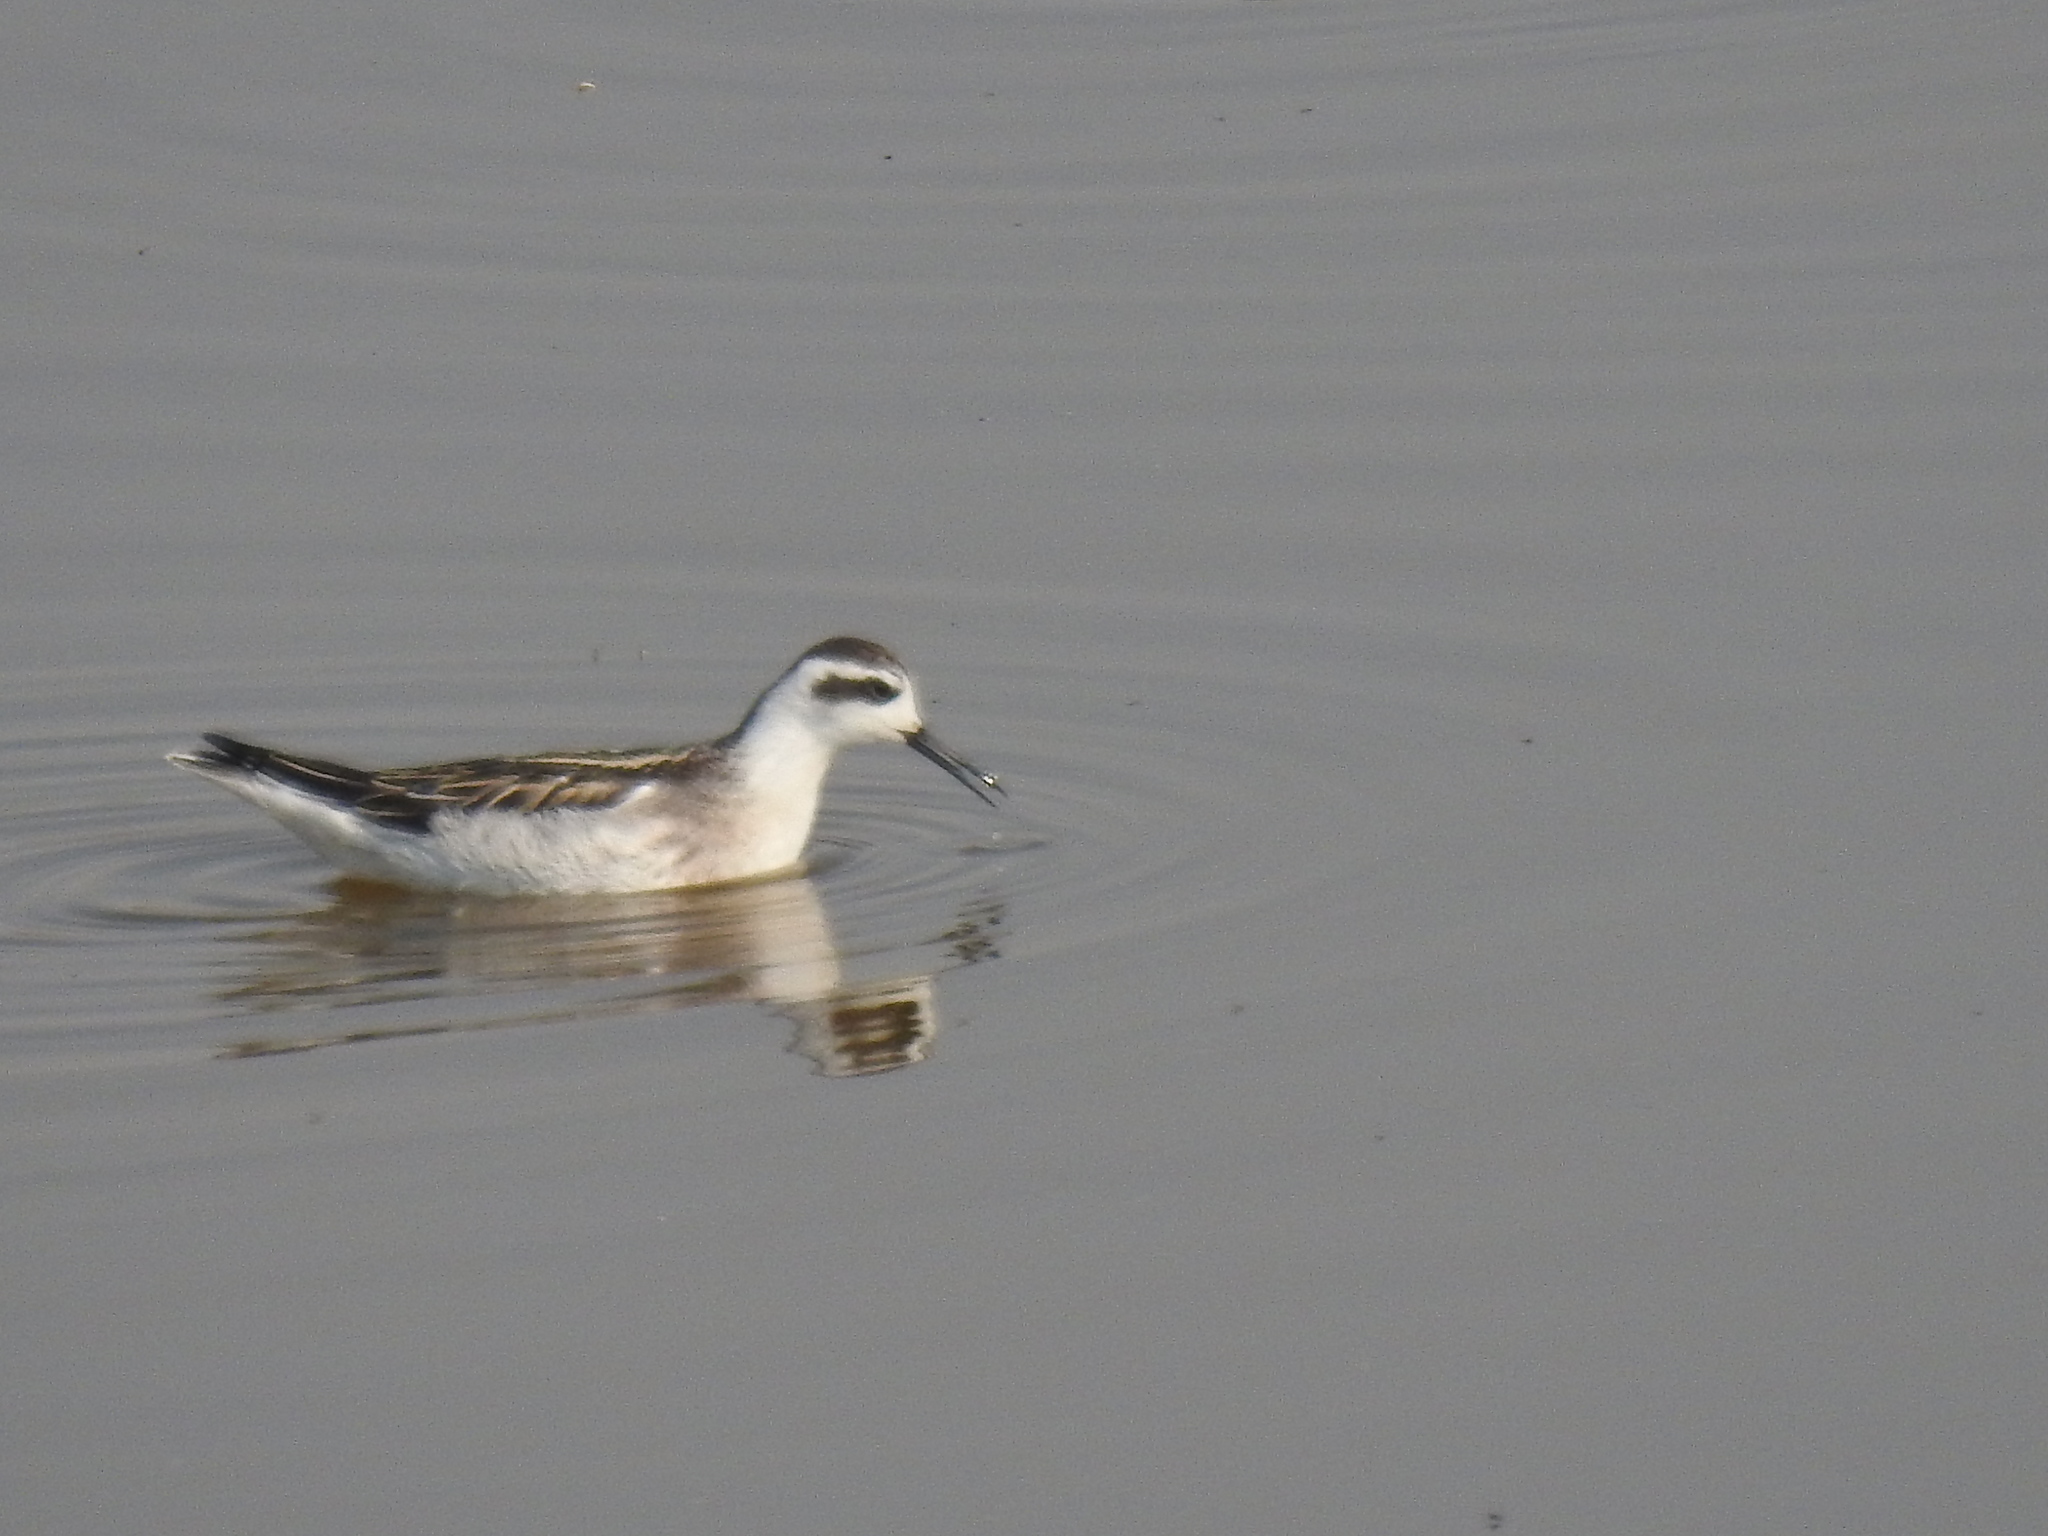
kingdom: Animalia
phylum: Chordata
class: Aves
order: Charadriiformes
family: Scolopacidae
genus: Phalaropus
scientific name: Phalaropus lobatus
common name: Red-necked phalarope
